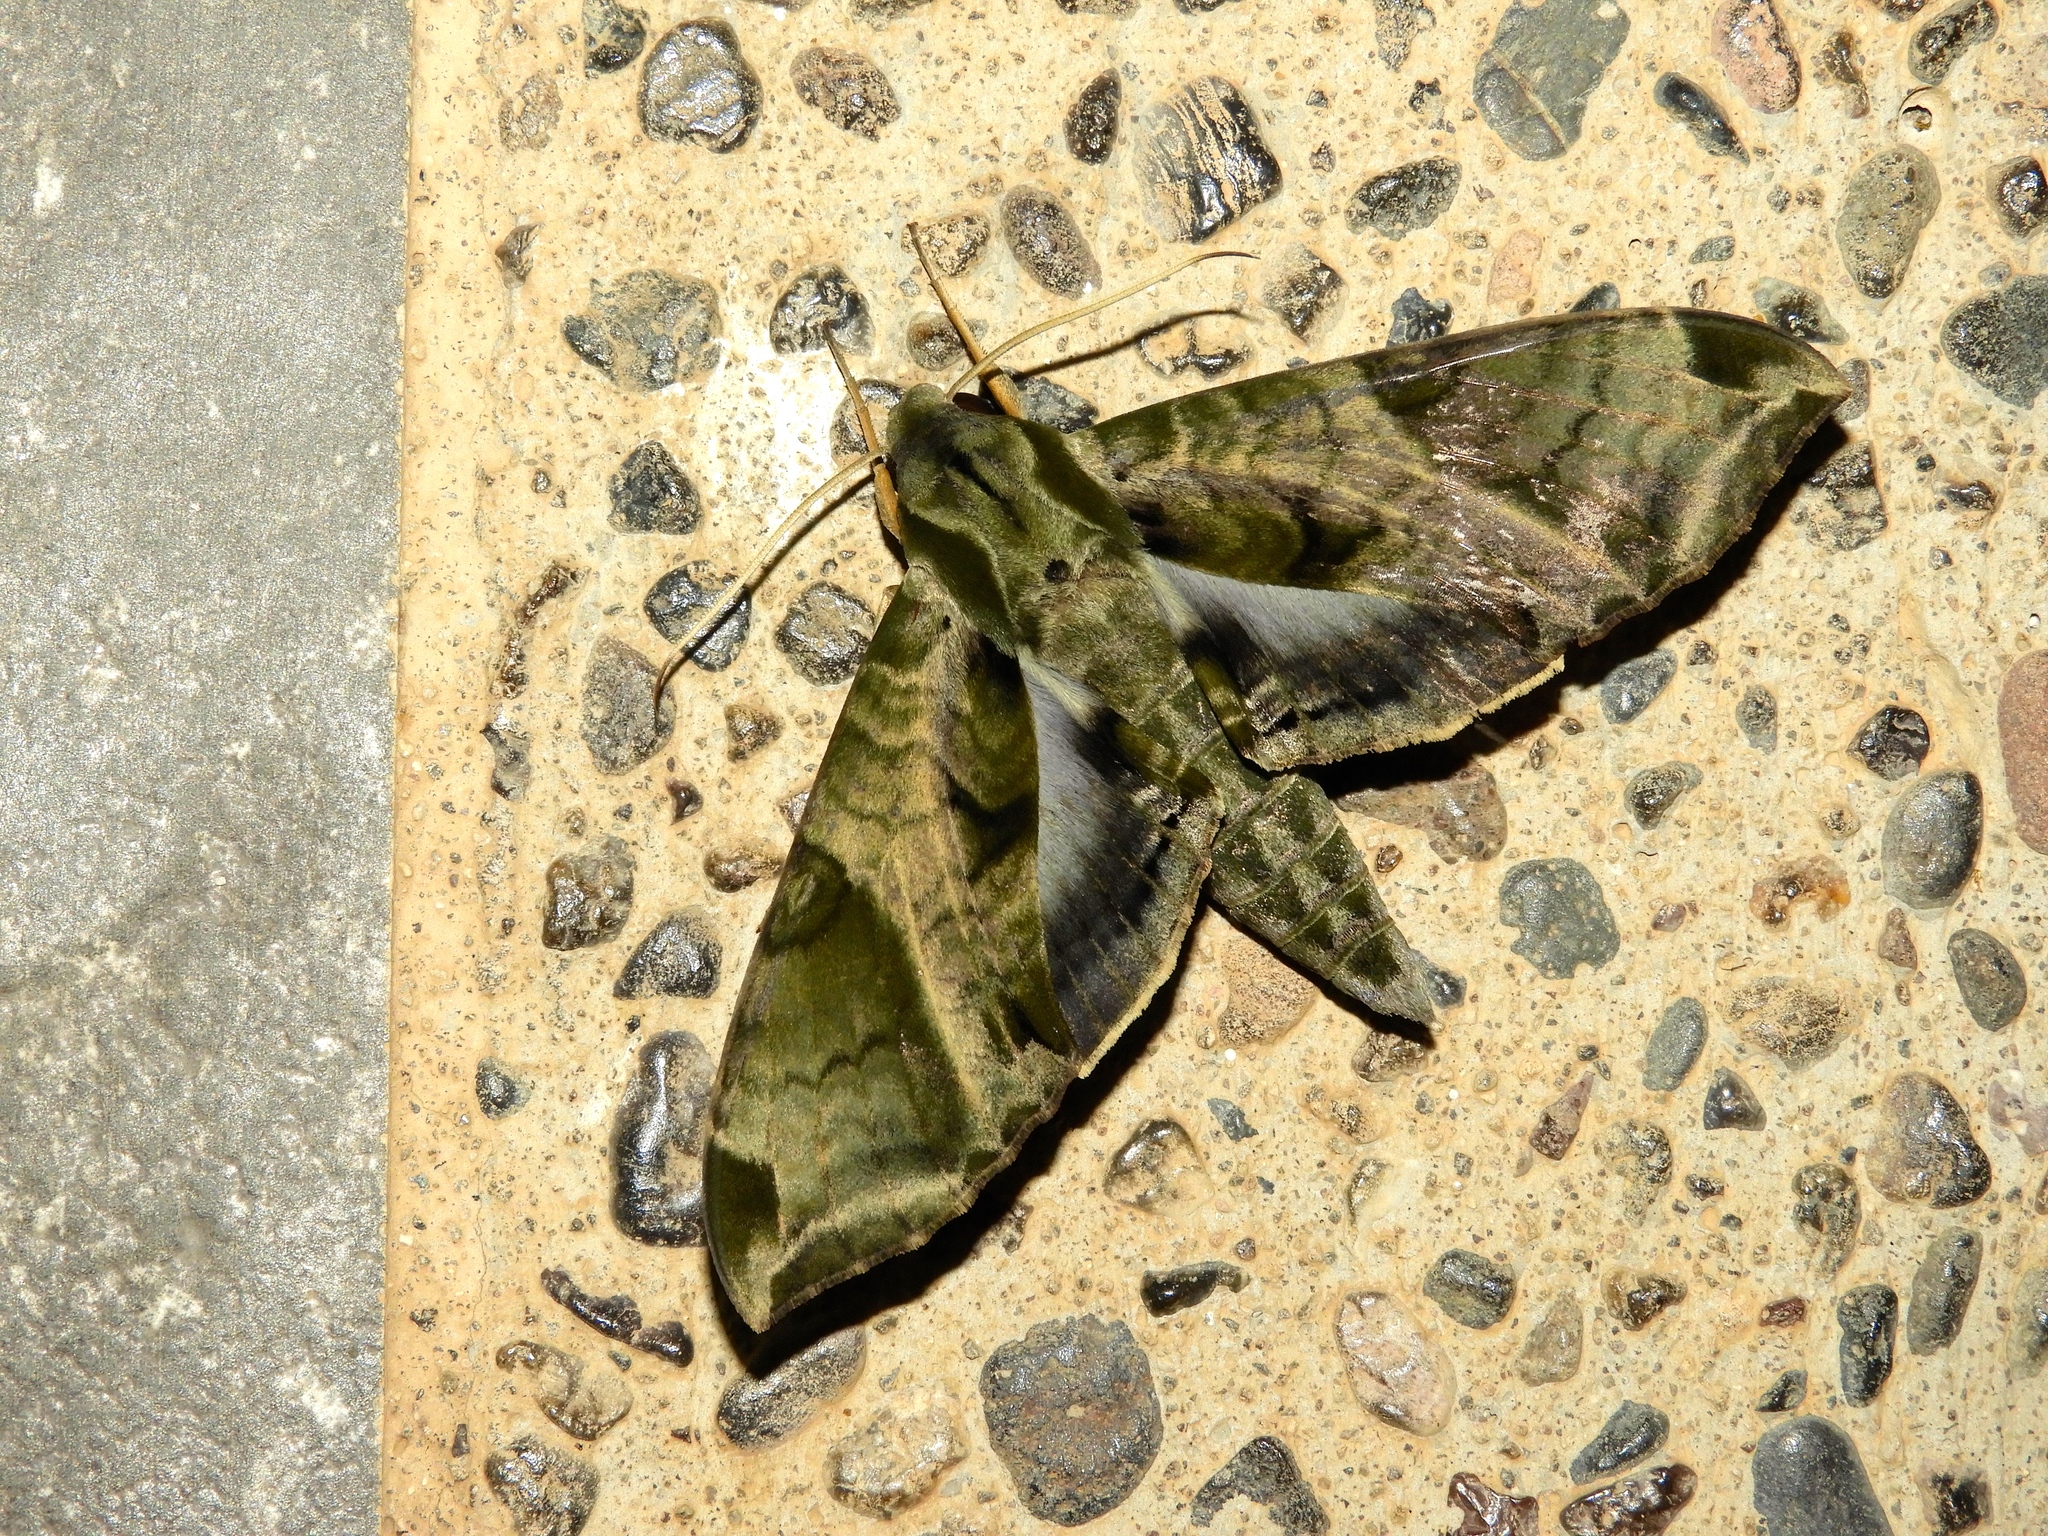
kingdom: Animalia
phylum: Arthropoda
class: Insecta
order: Lepidoptera
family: Sphingidae
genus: Eumorpha
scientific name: Eumorpha
